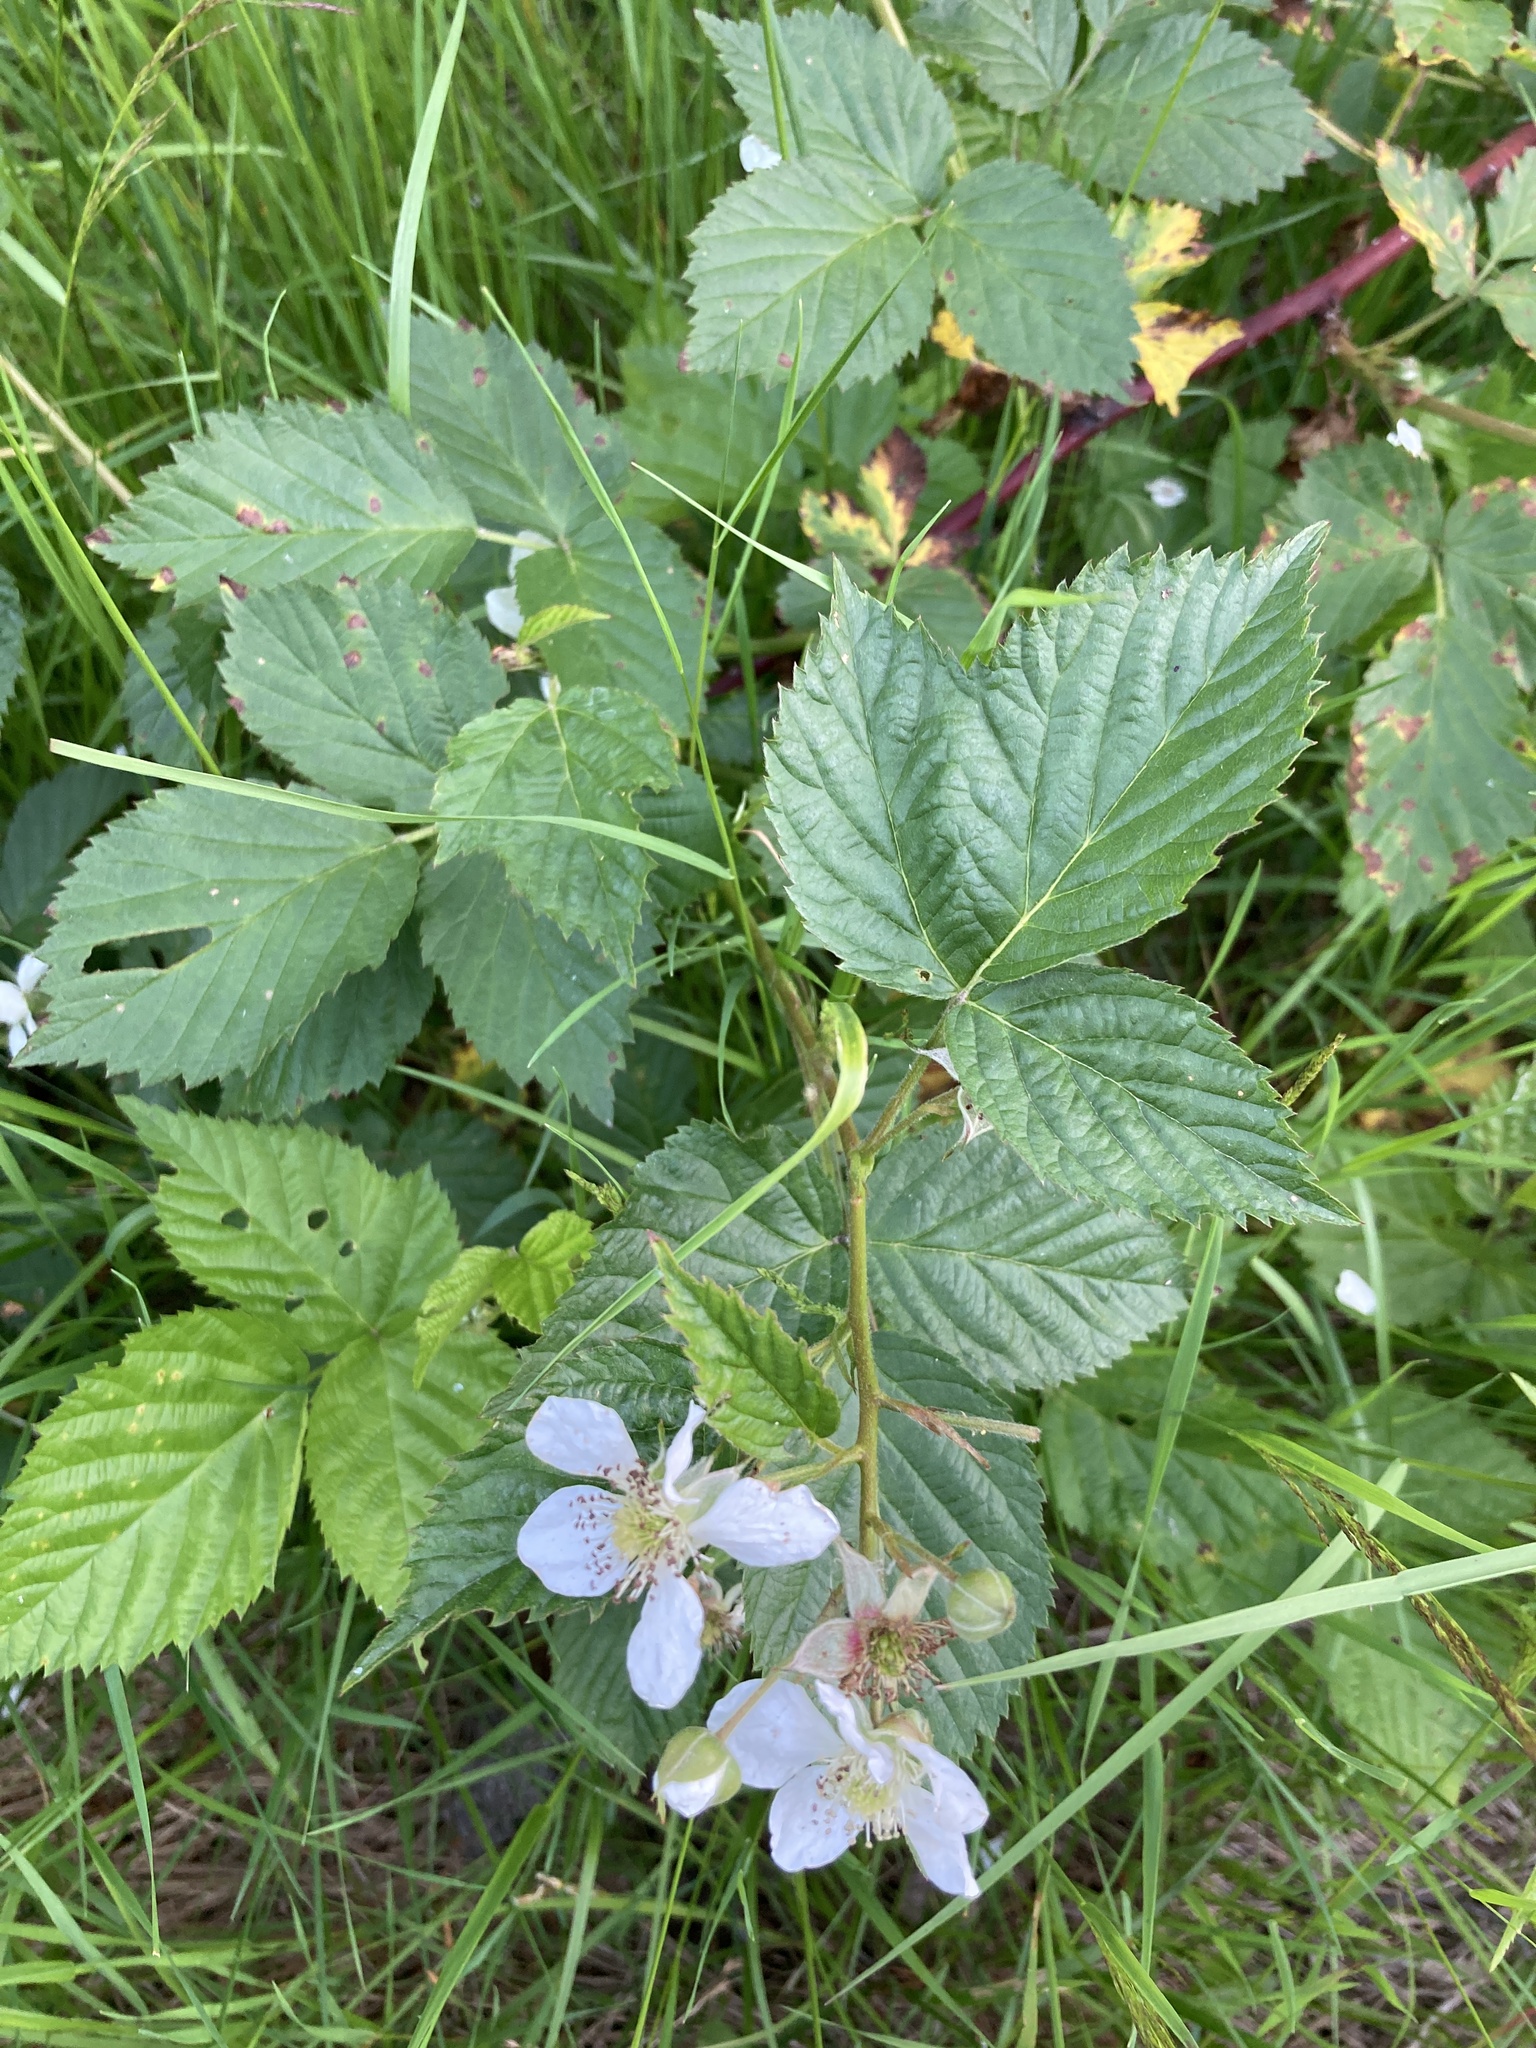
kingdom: Plantae
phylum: Tracheophyta
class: Magnoliopsida
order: Rosales
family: Rosaceae
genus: Rubus
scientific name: Rubus polonicus
